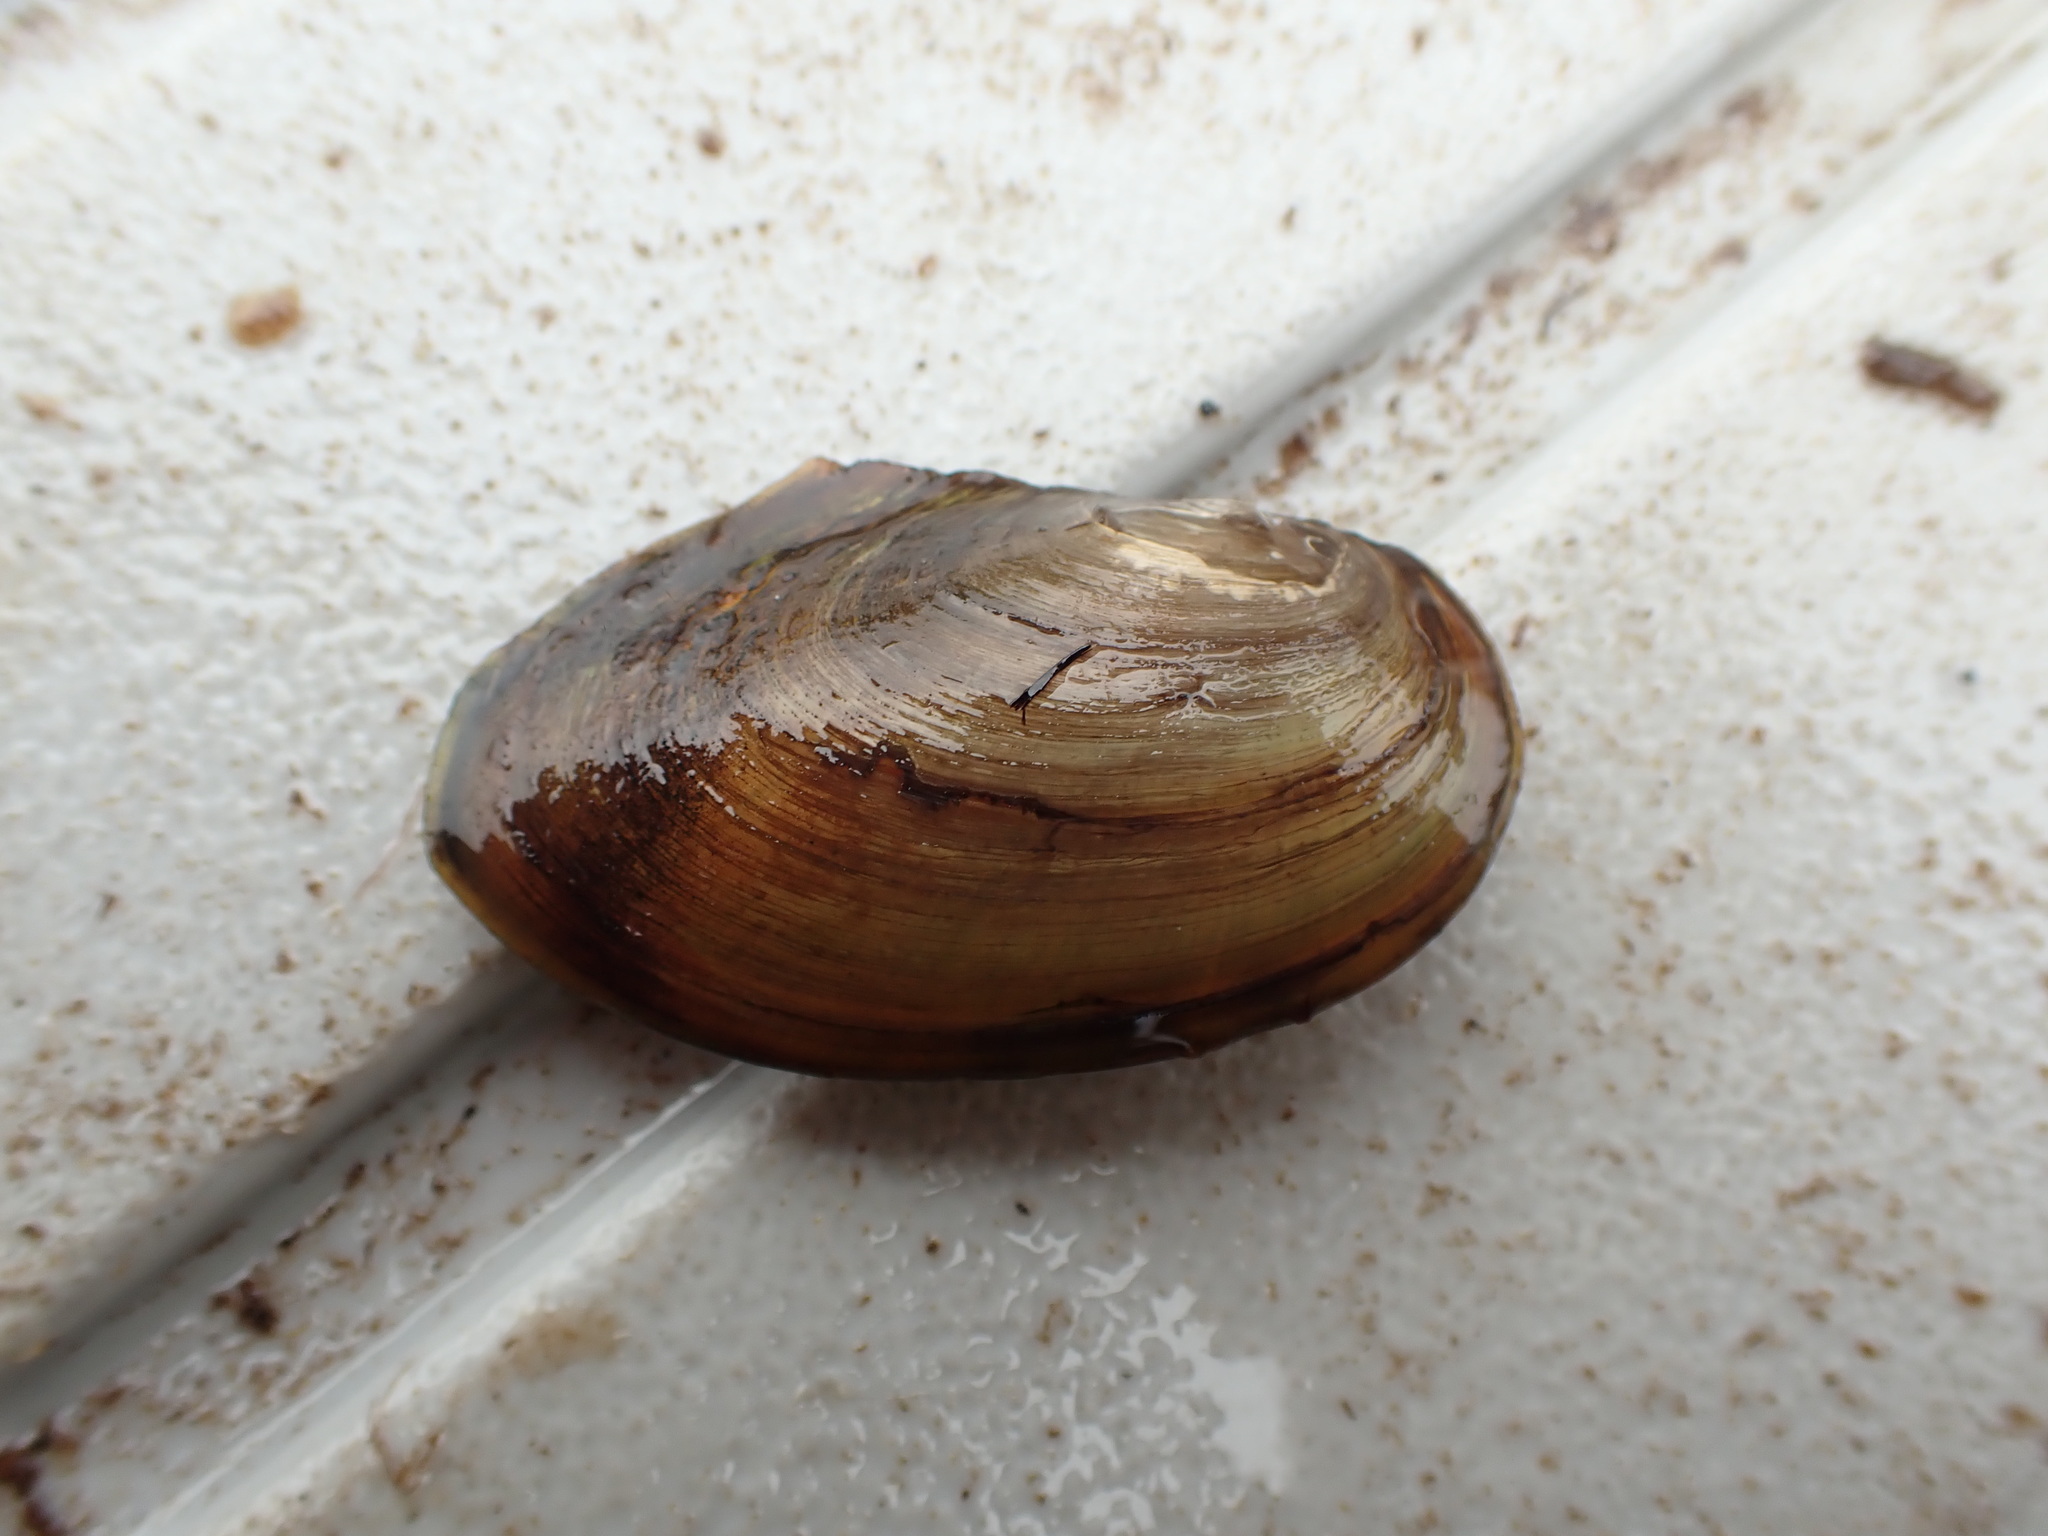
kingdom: Animalia
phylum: Mollusca
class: Bivalvia
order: Unionida
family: Unionidae
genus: Beringiana
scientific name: Beringiana beringiana
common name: Yukon floater
